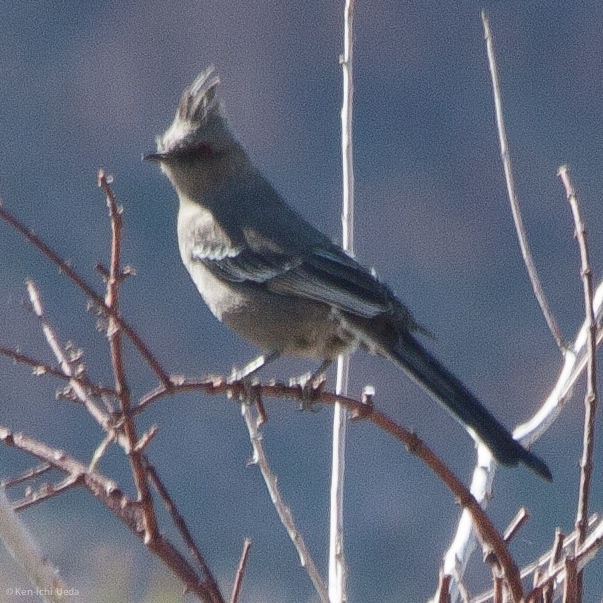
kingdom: Animalia
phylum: Chordata
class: Aves
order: Passeriformes
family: Ptilogonatidae
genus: Phainopepla
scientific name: Phainopepla nitens
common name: Phainopepla
